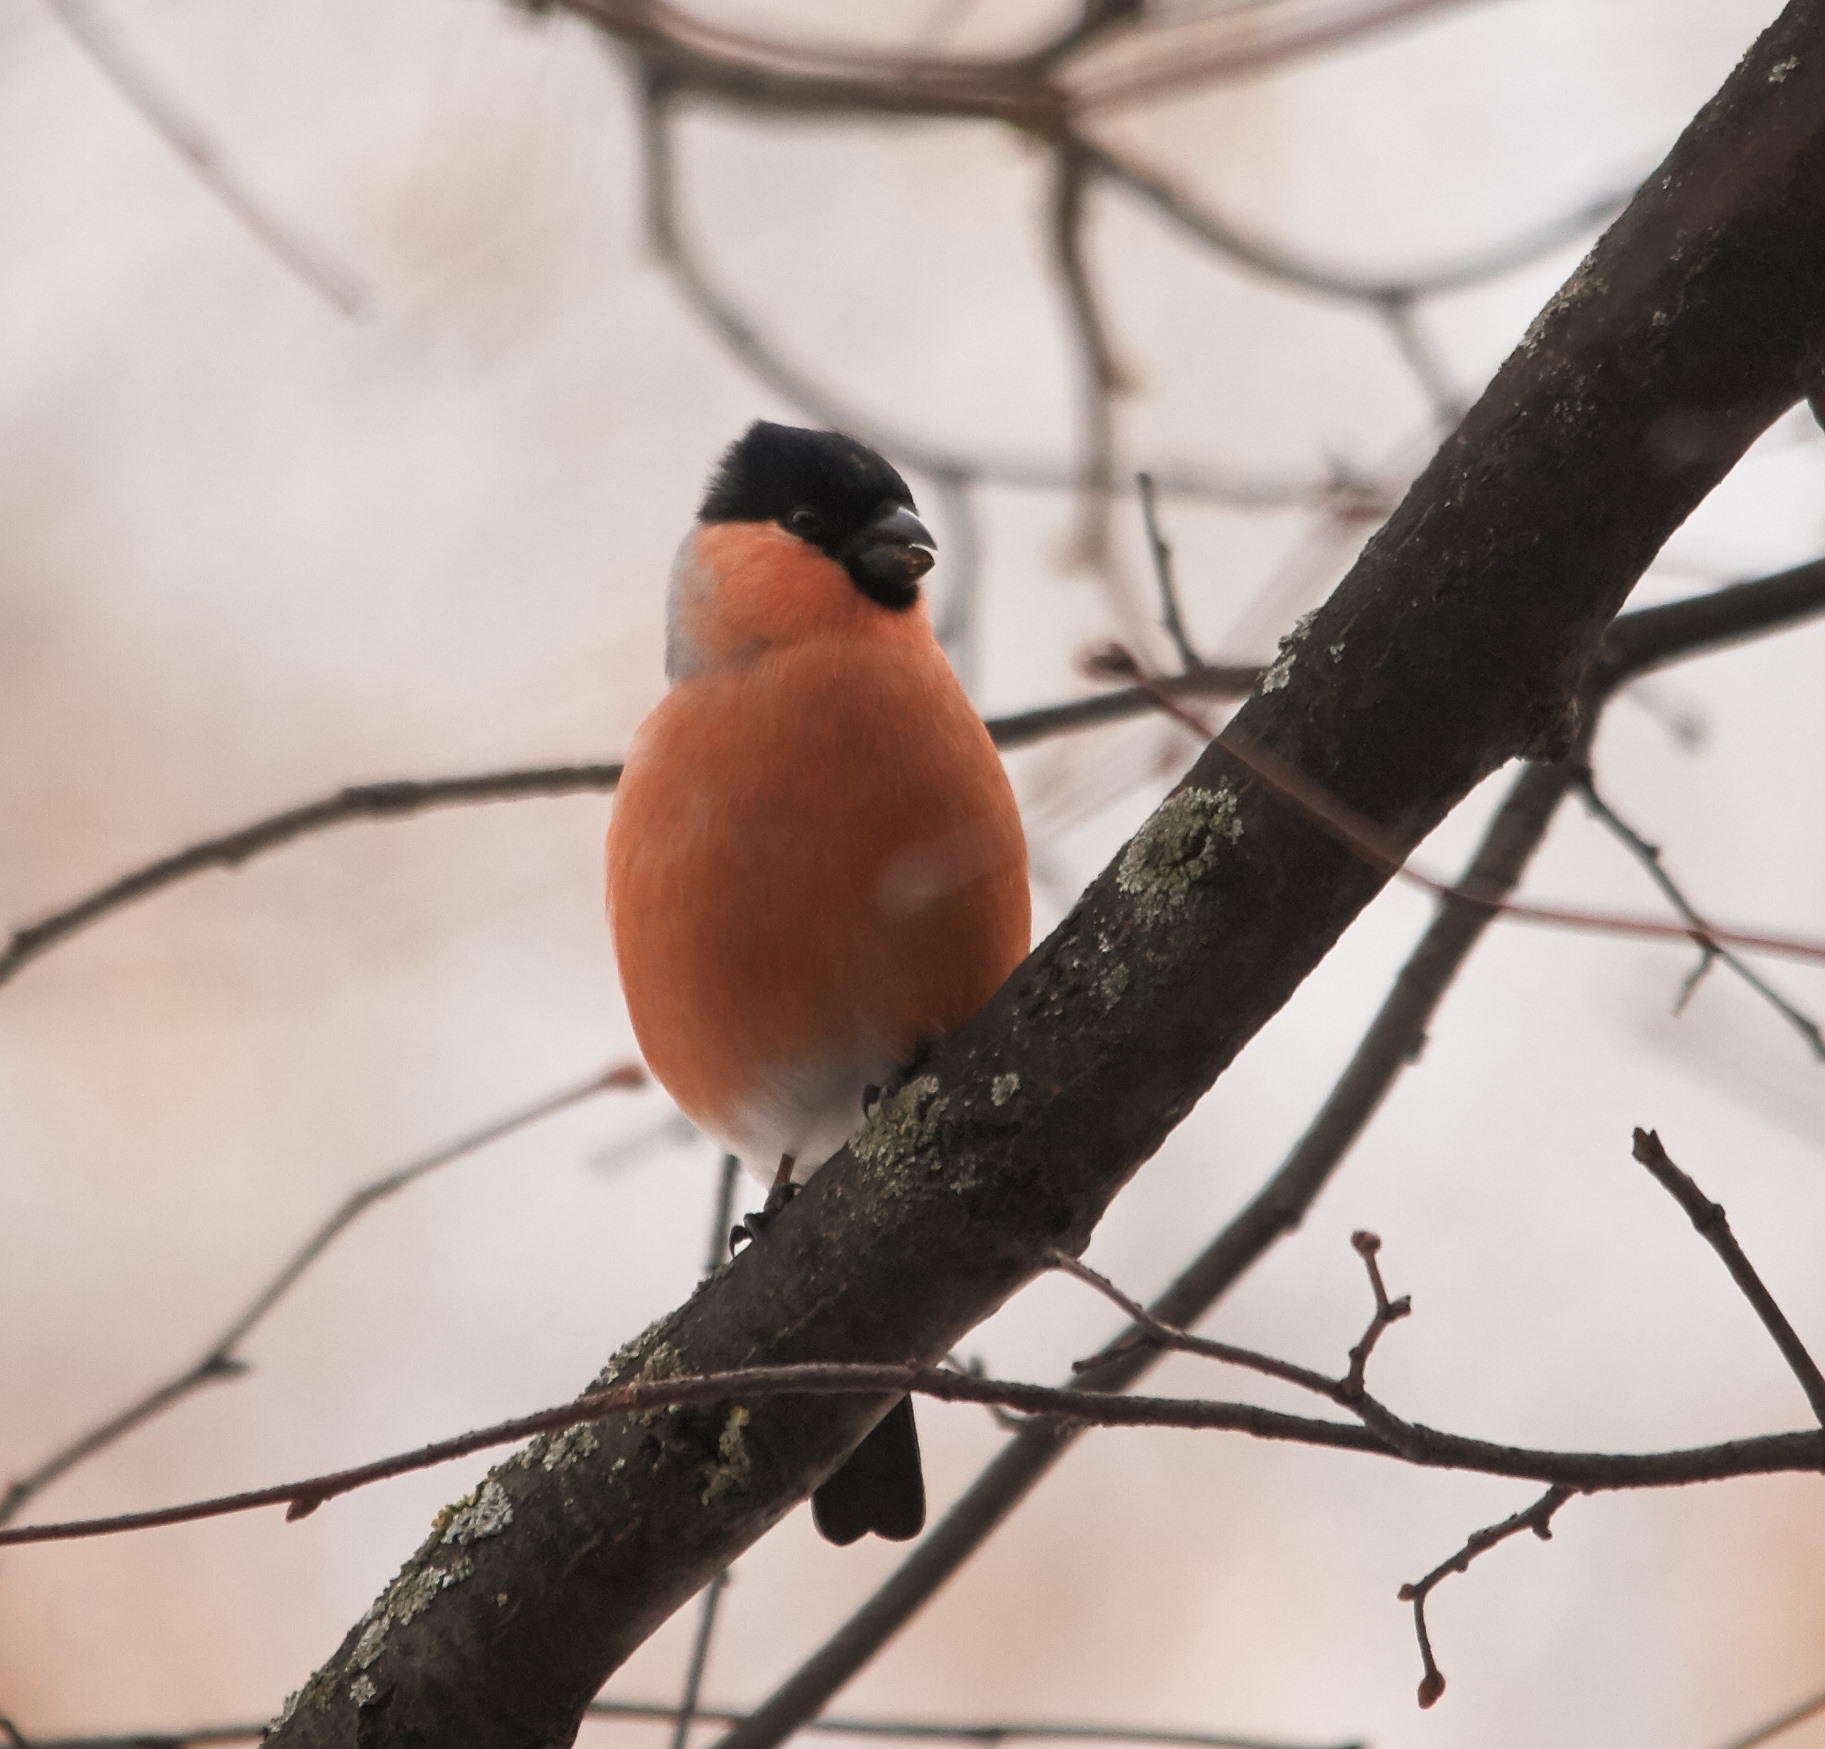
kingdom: Animalia
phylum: Chordata
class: Aves
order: Passeriformes
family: Fringillidae
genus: Pyrrhula
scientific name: Pyrrhula pyrrhula
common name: Eurasian bullfinch
